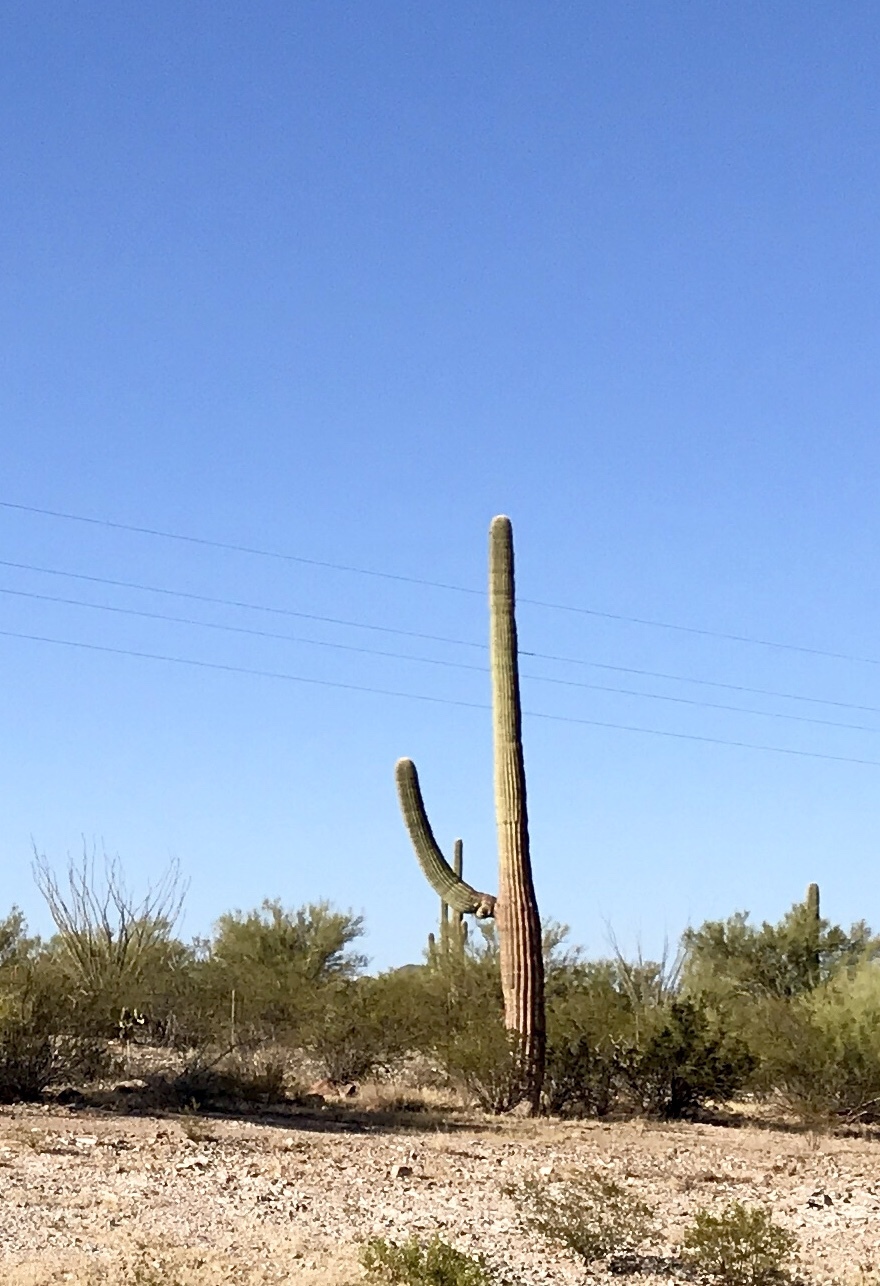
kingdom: Plantae
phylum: Tracheophyta
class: Magnoliopsida
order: Caryophyllales
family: Cactaceae
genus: Carnegiea
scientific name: Carnegiea gigantea
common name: Saguaro
